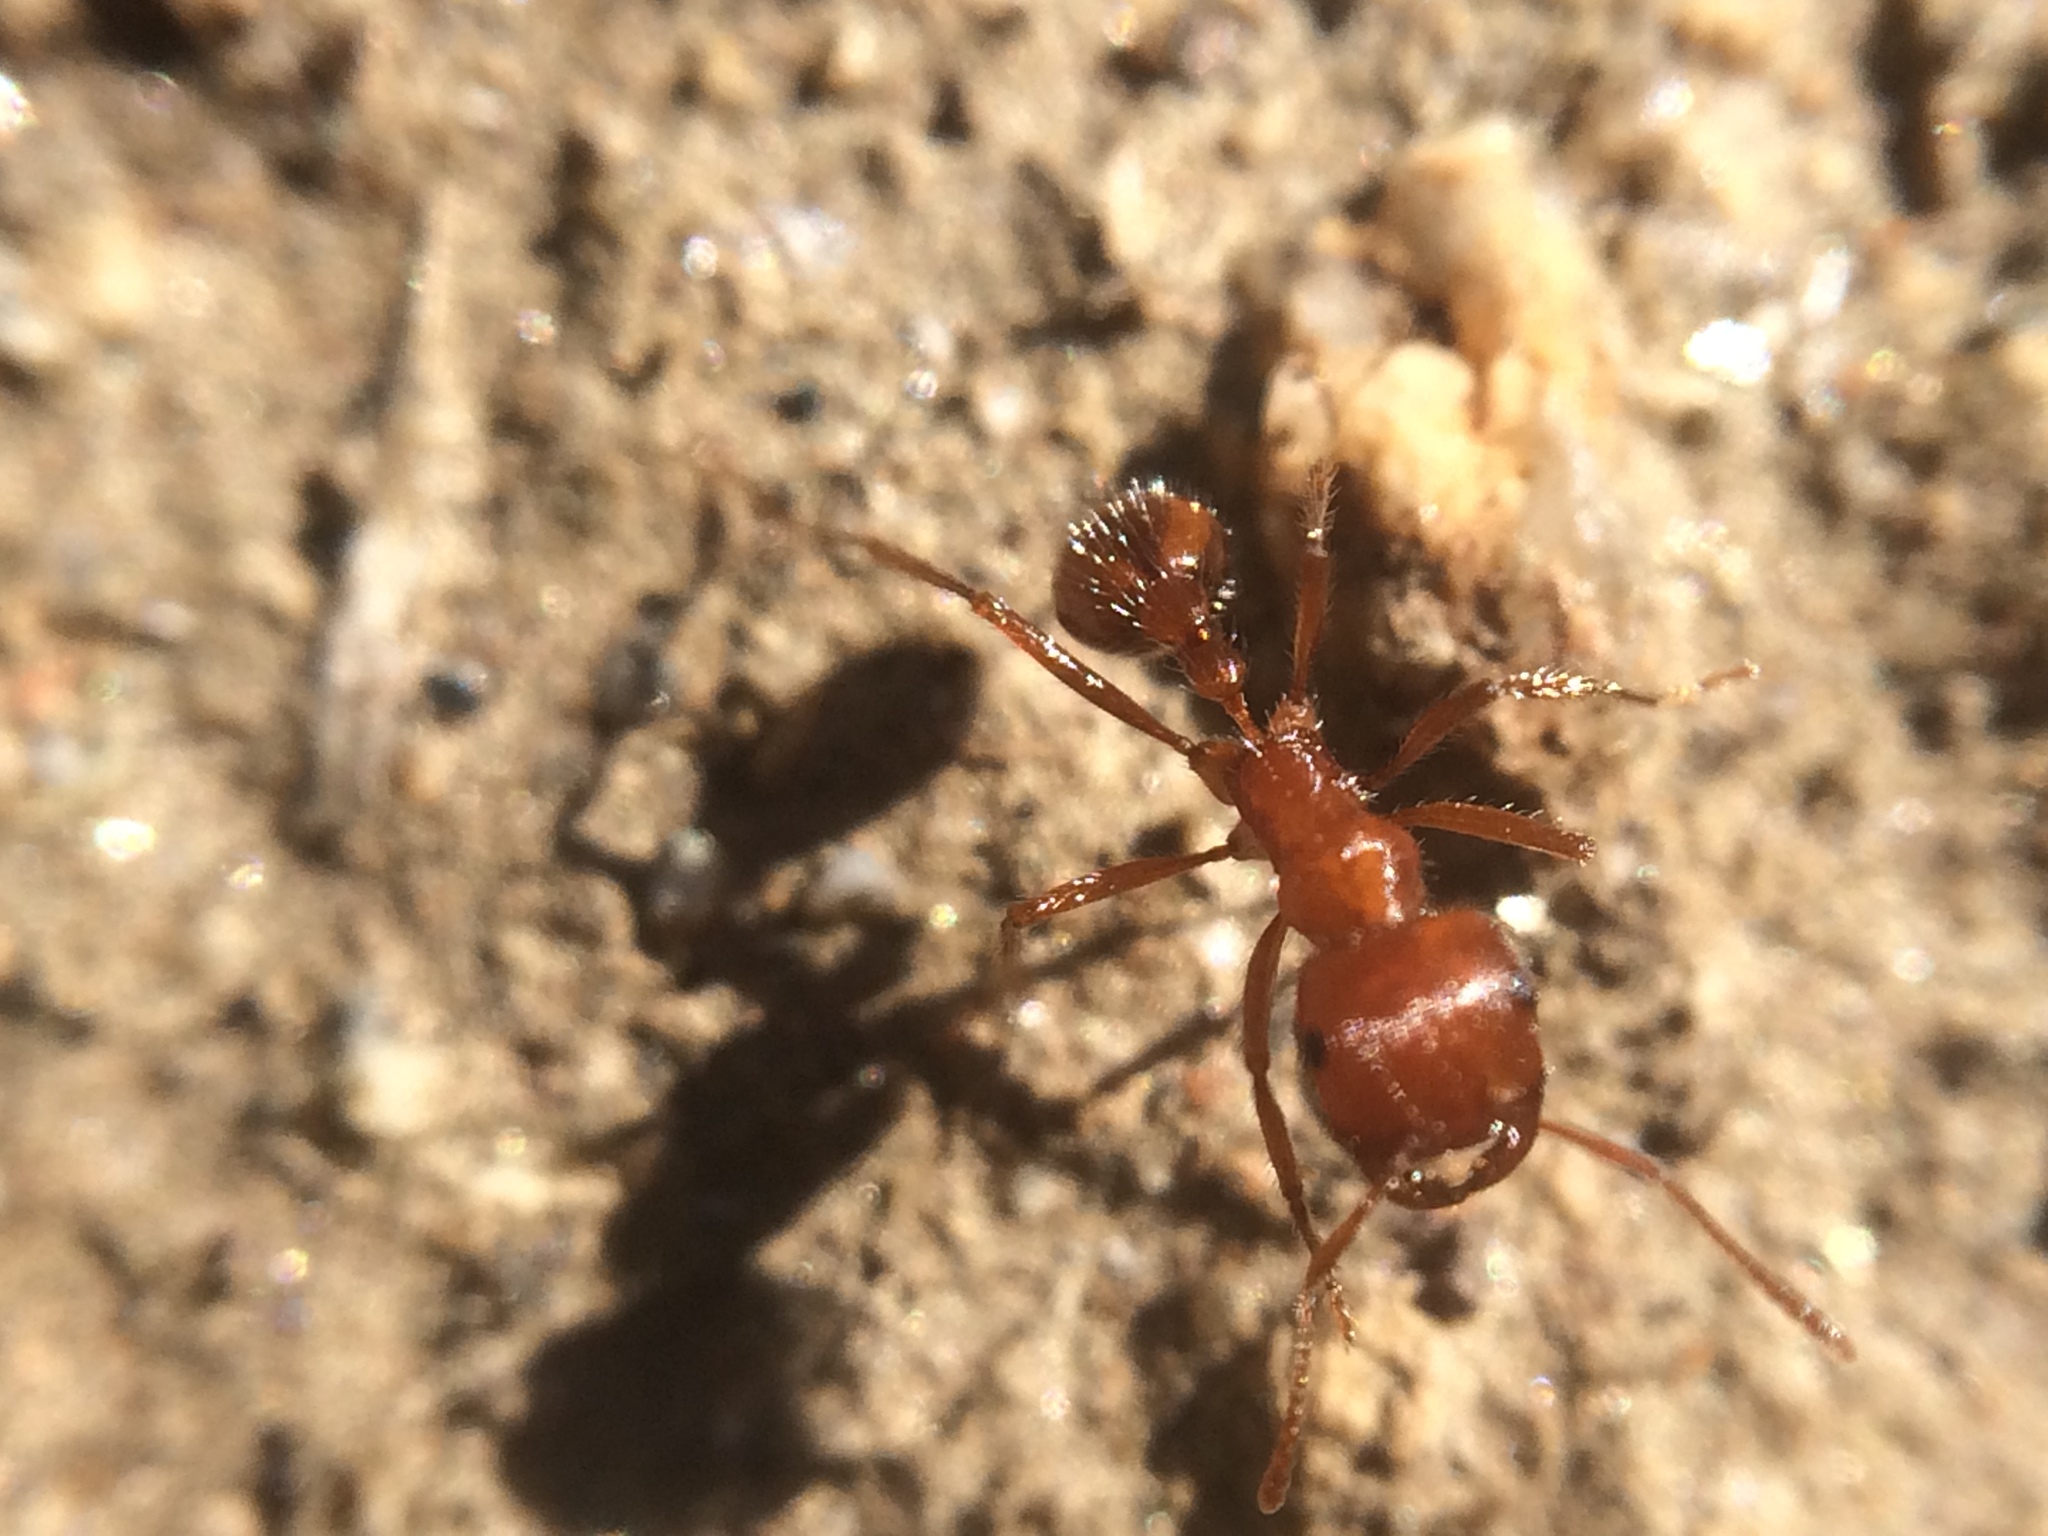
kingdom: Animalia
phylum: Arthropoda
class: Insecta
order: Hymenoptera
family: Formicidae
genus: Pogonomyrmex
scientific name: Pogonomyrmex californicus
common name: California harvester ant
